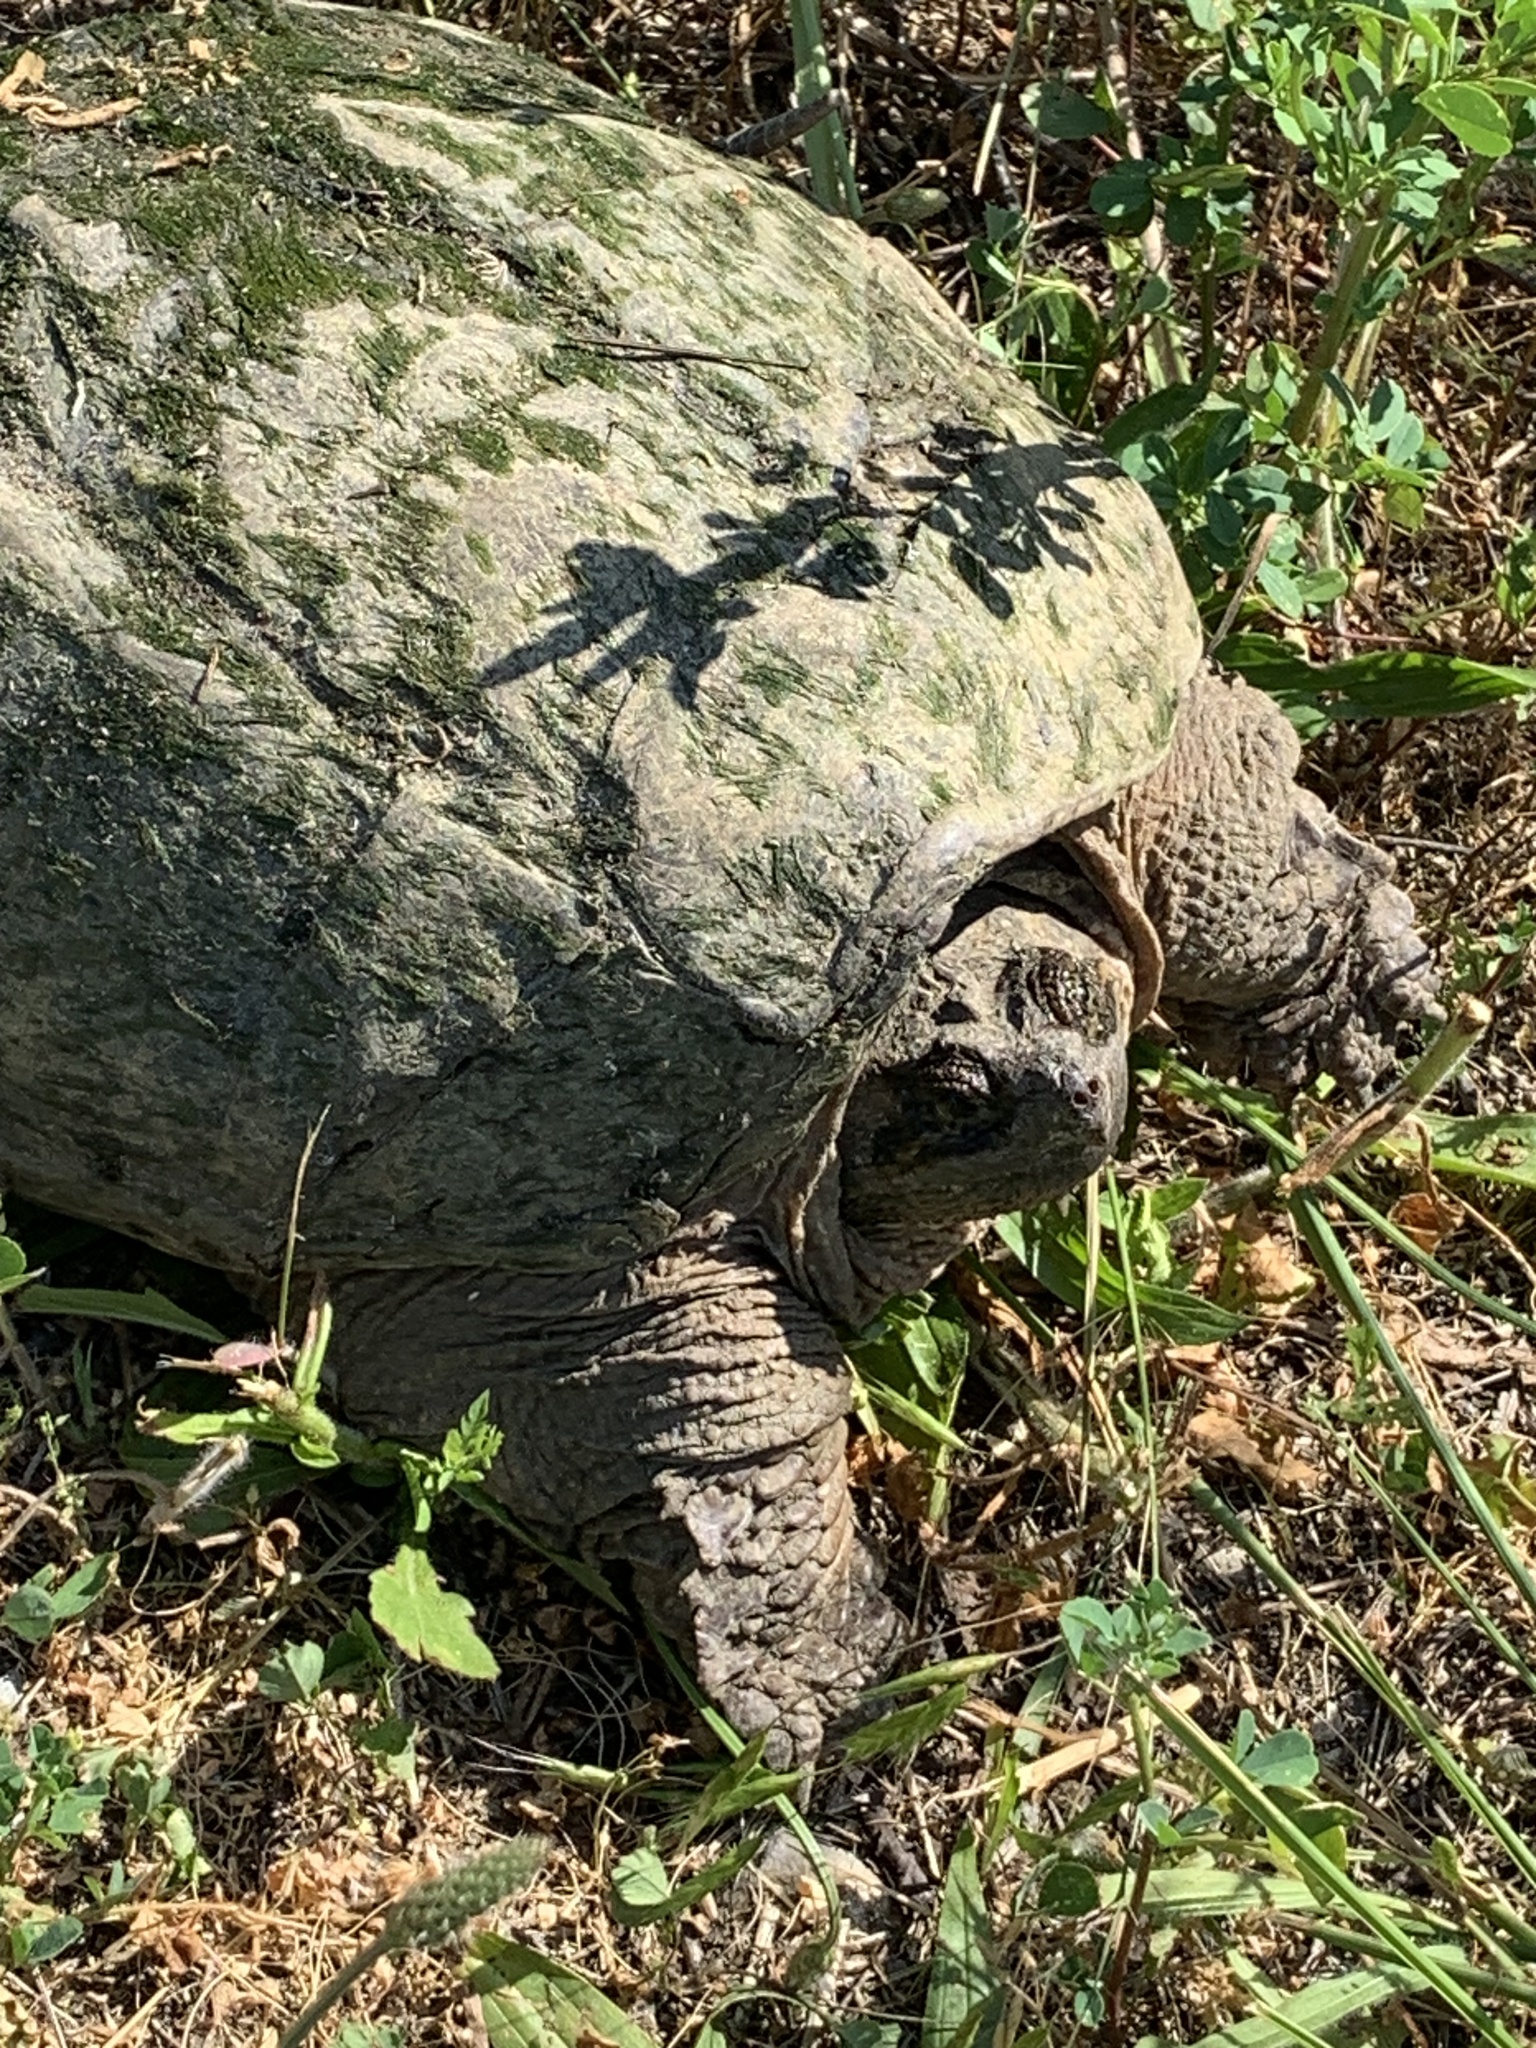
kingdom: Animalia
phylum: Chordata
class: Testudines
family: Chelydridae
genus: Chelydra
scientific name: Chelydra serpentina
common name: Common snapping turtle
